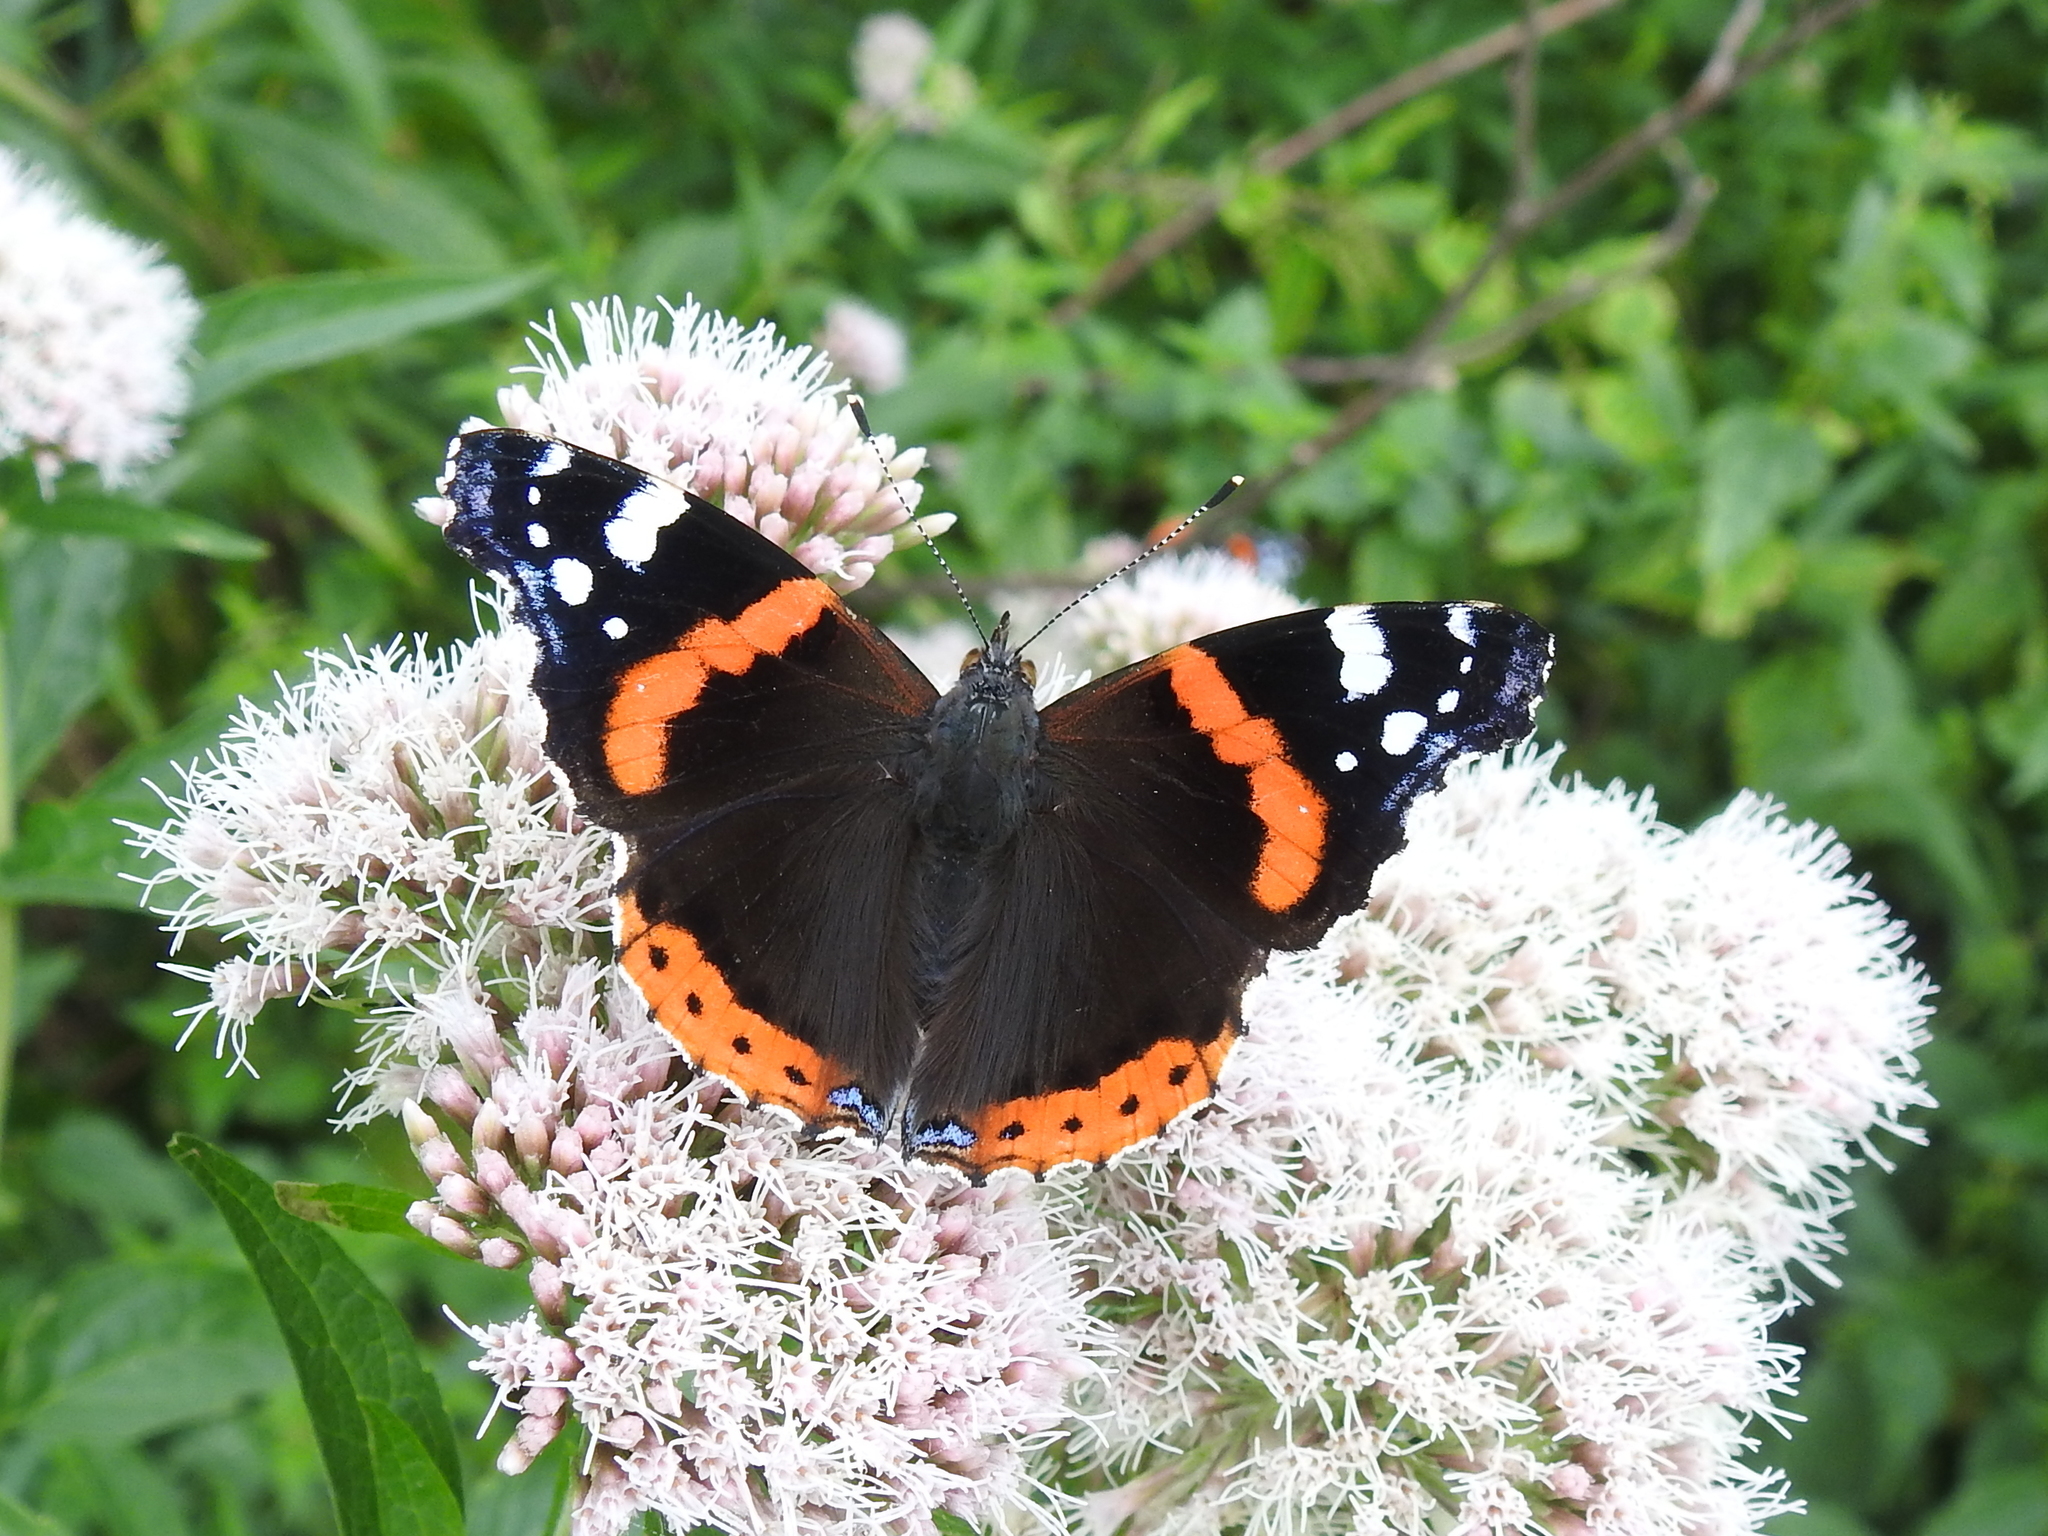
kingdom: Animalia
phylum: Arthropoda
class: Insecta
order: Lepidoptera
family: Nymphalidae
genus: Vanessa
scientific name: Vanessa atalanta
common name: Red admiral
